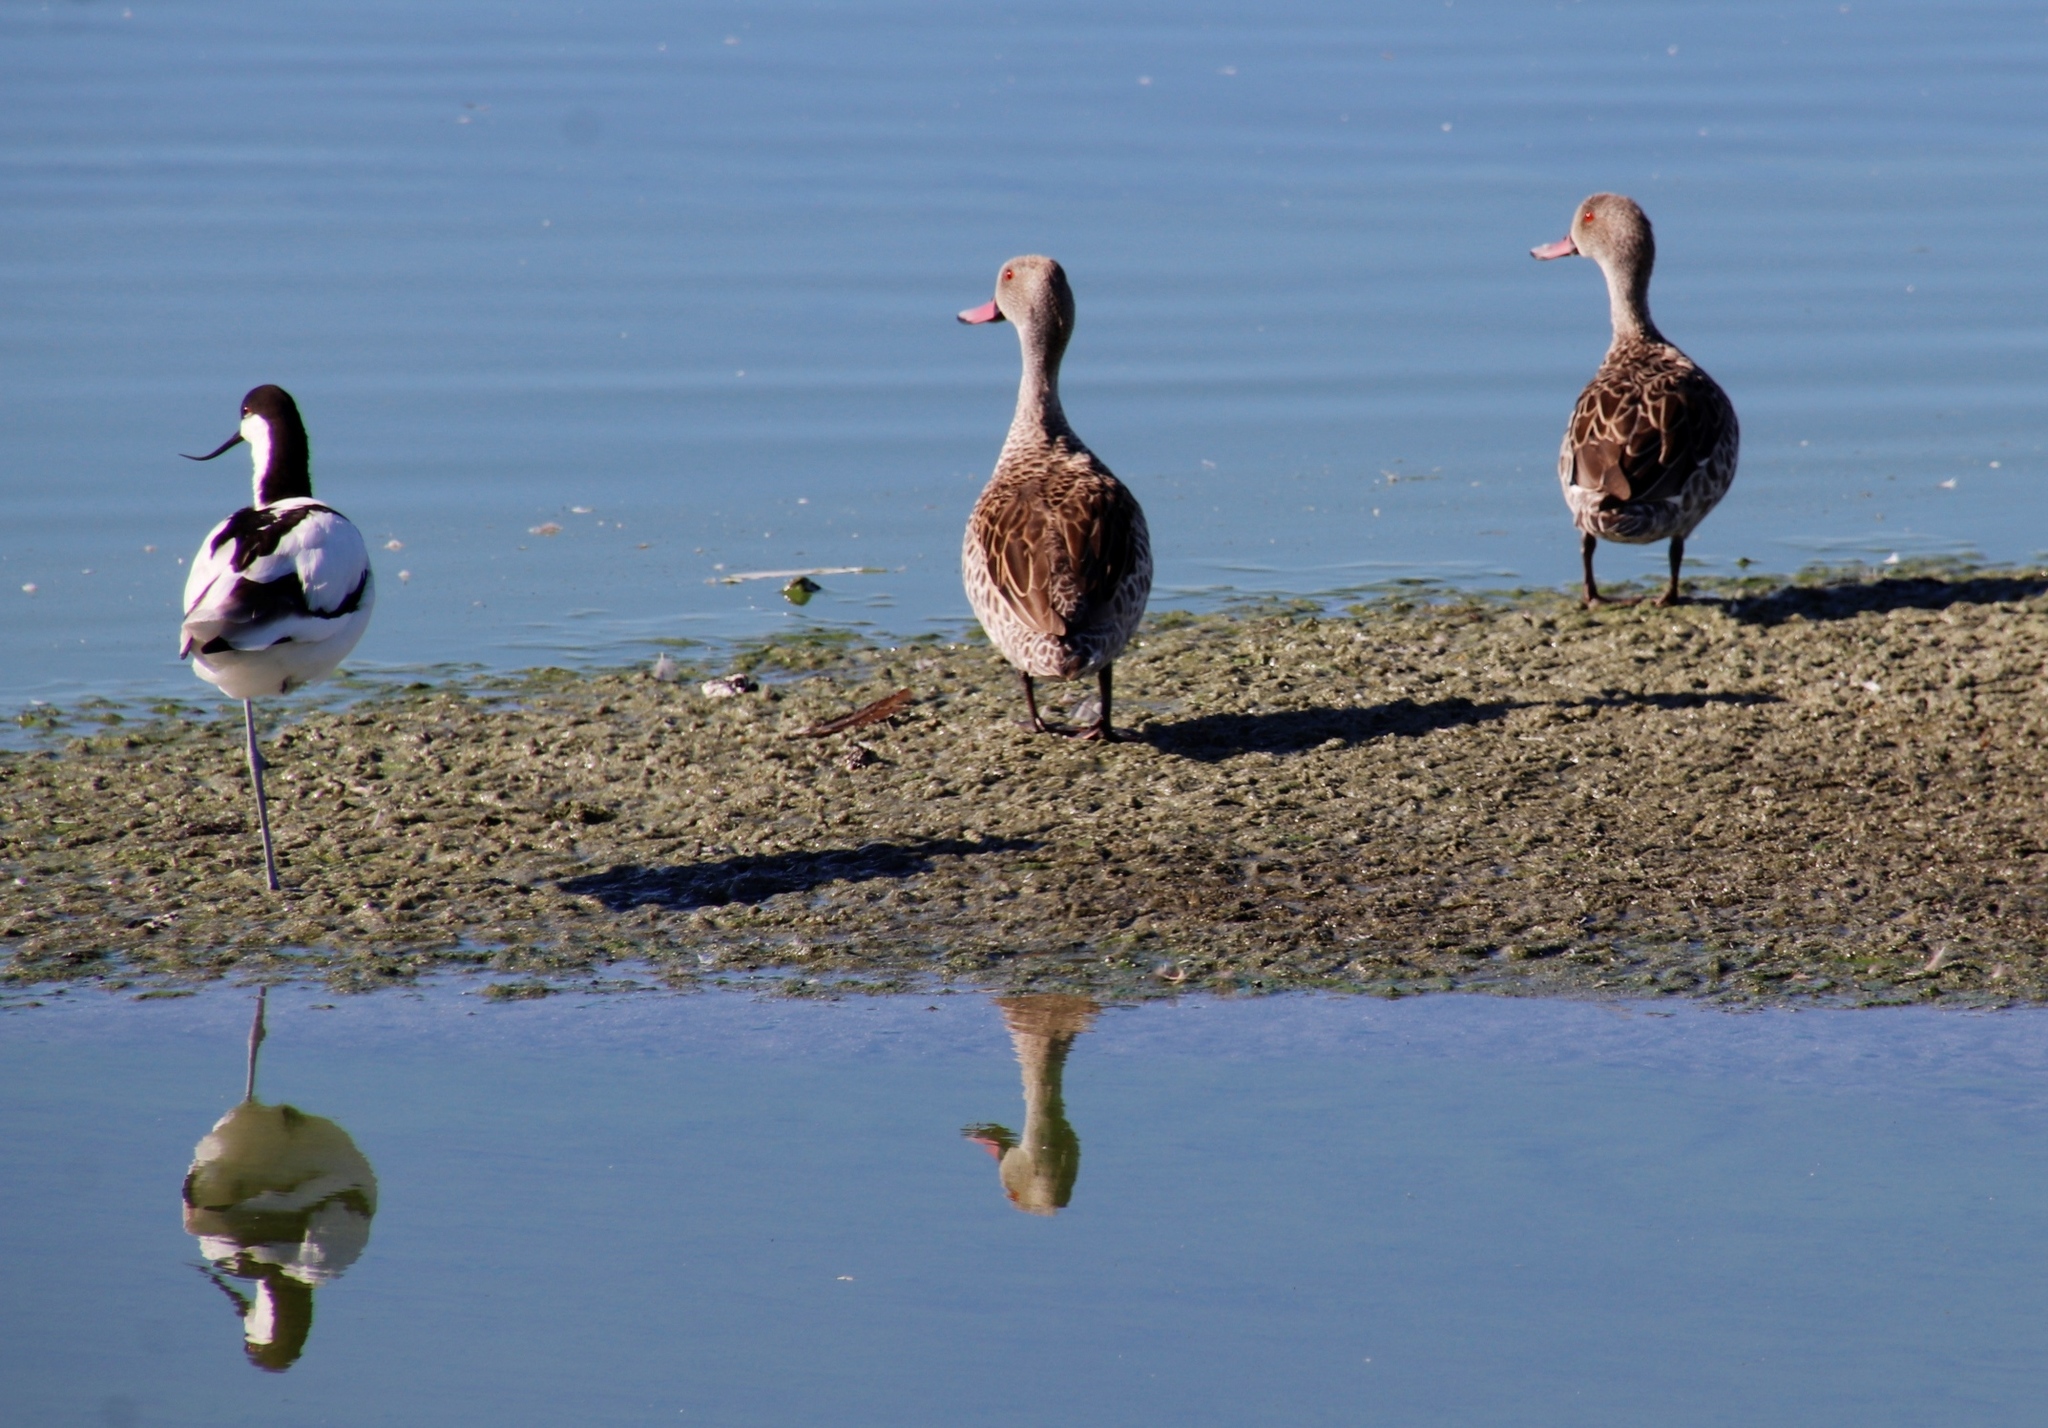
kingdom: Animalia
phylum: Chordata
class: Aves
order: Anseriformes
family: Anatidae
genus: Anas
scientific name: Anas capensis
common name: Cape teal
